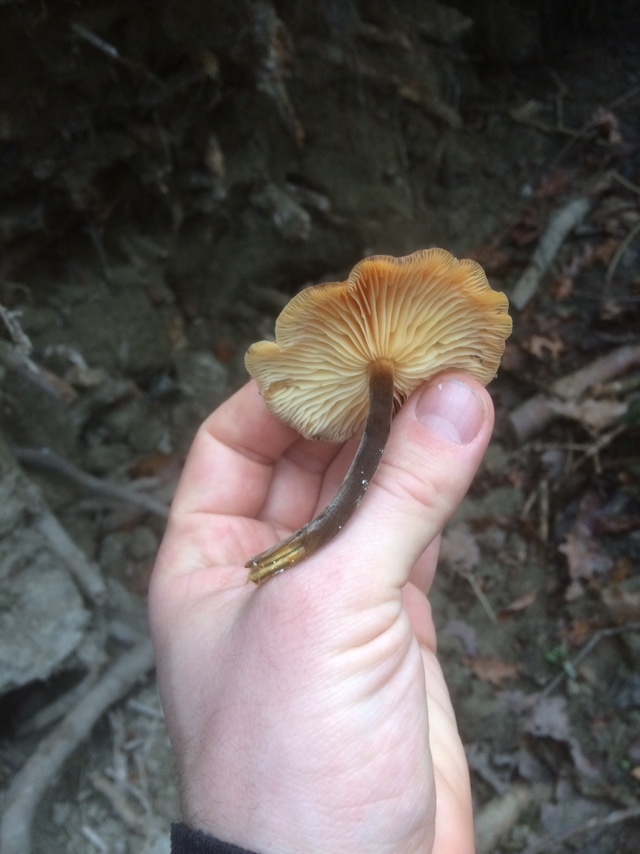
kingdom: Fungi
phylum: Basidiomycota
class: Agaricomycetes
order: Agaricales
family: Physalacriaceae
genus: Flammulina
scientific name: Flammulina
